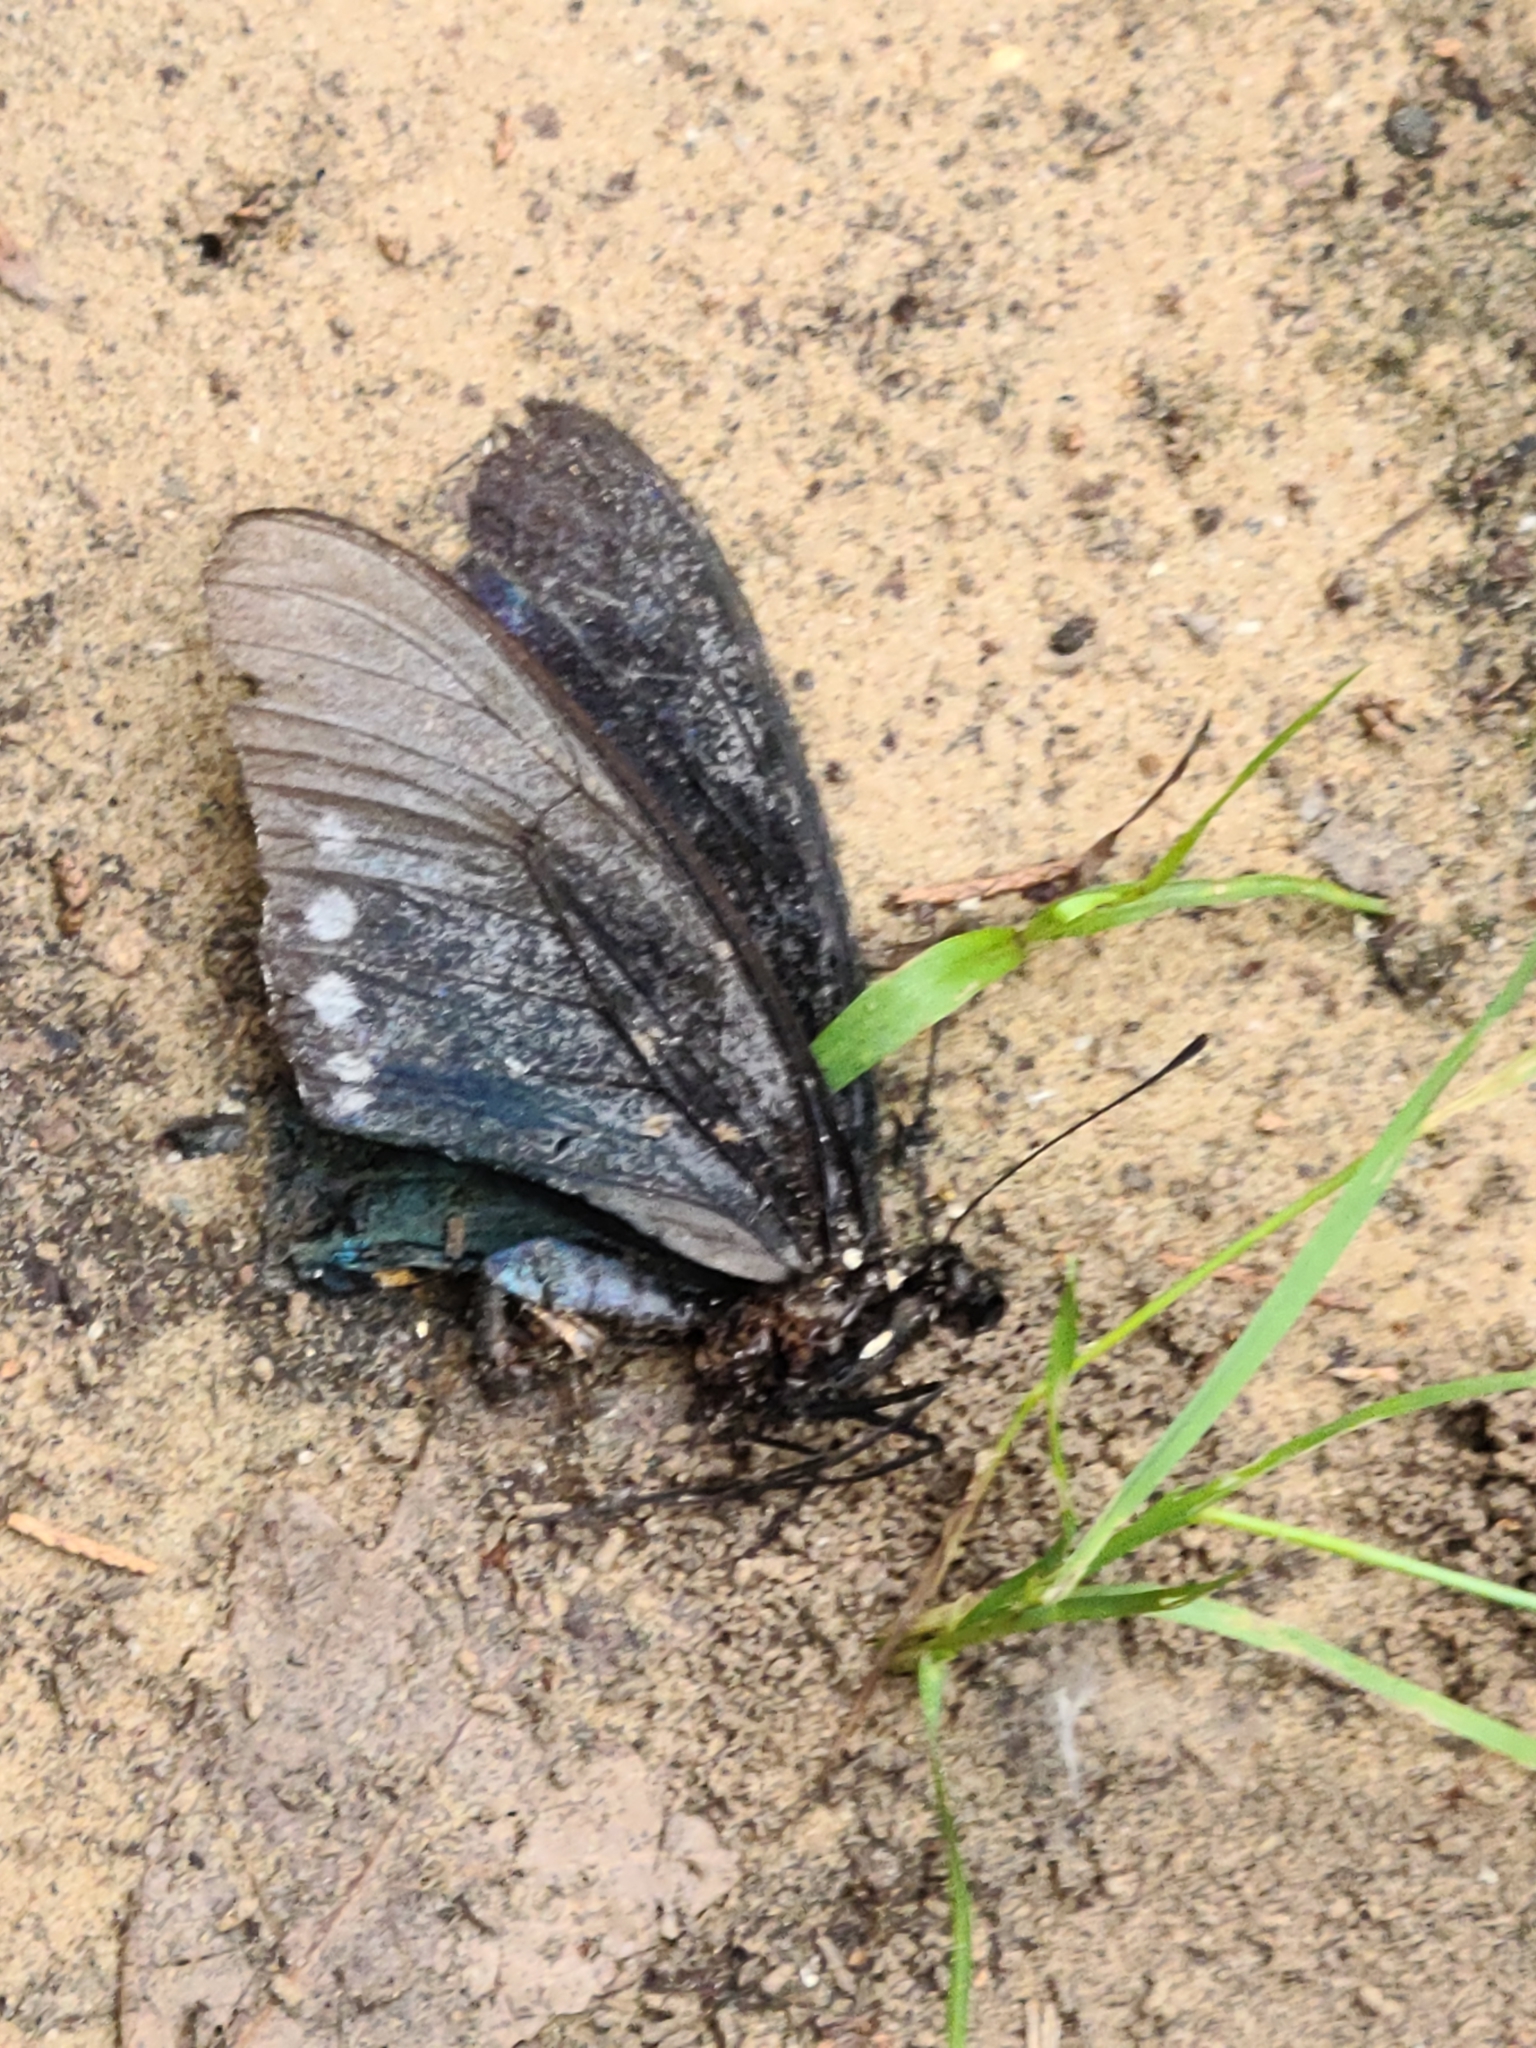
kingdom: Animalia
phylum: Arthropoda
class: Insecta
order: Lepidoptera
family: Papilionidae
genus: Battus
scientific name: Battus philenor
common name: Pipevine swallowtail
